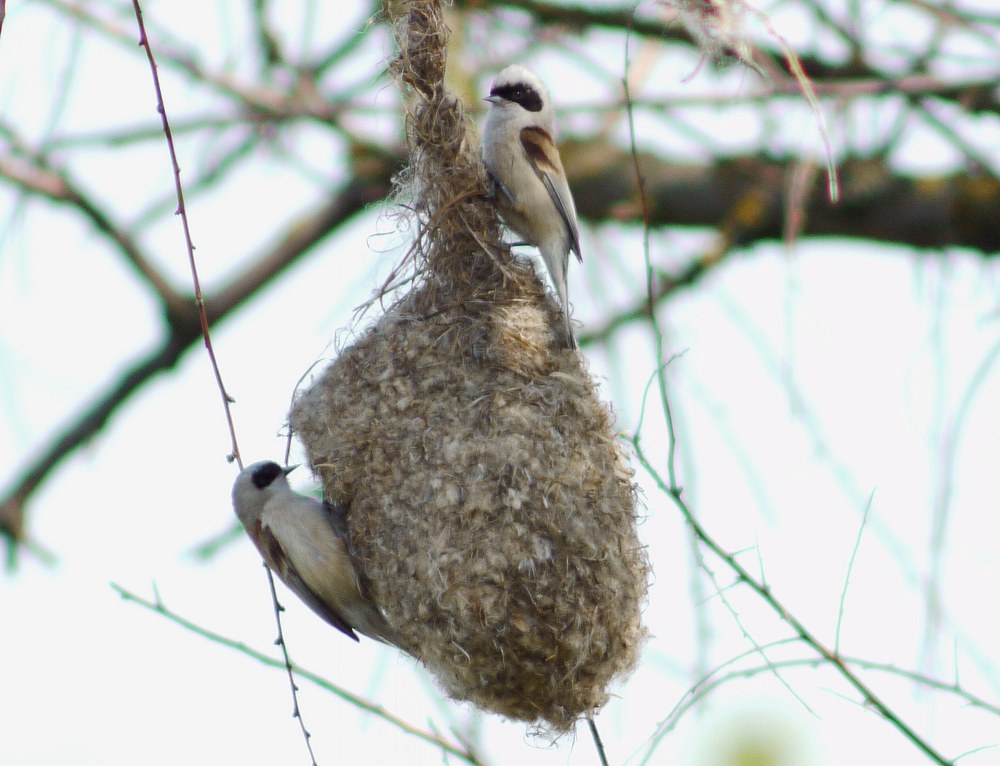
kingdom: Animalia
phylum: Chordata
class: Aves
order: Passeriformes
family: Remizidae
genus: Remiz
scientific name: Remiz pendulinus
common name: Eurasian penduline tit
